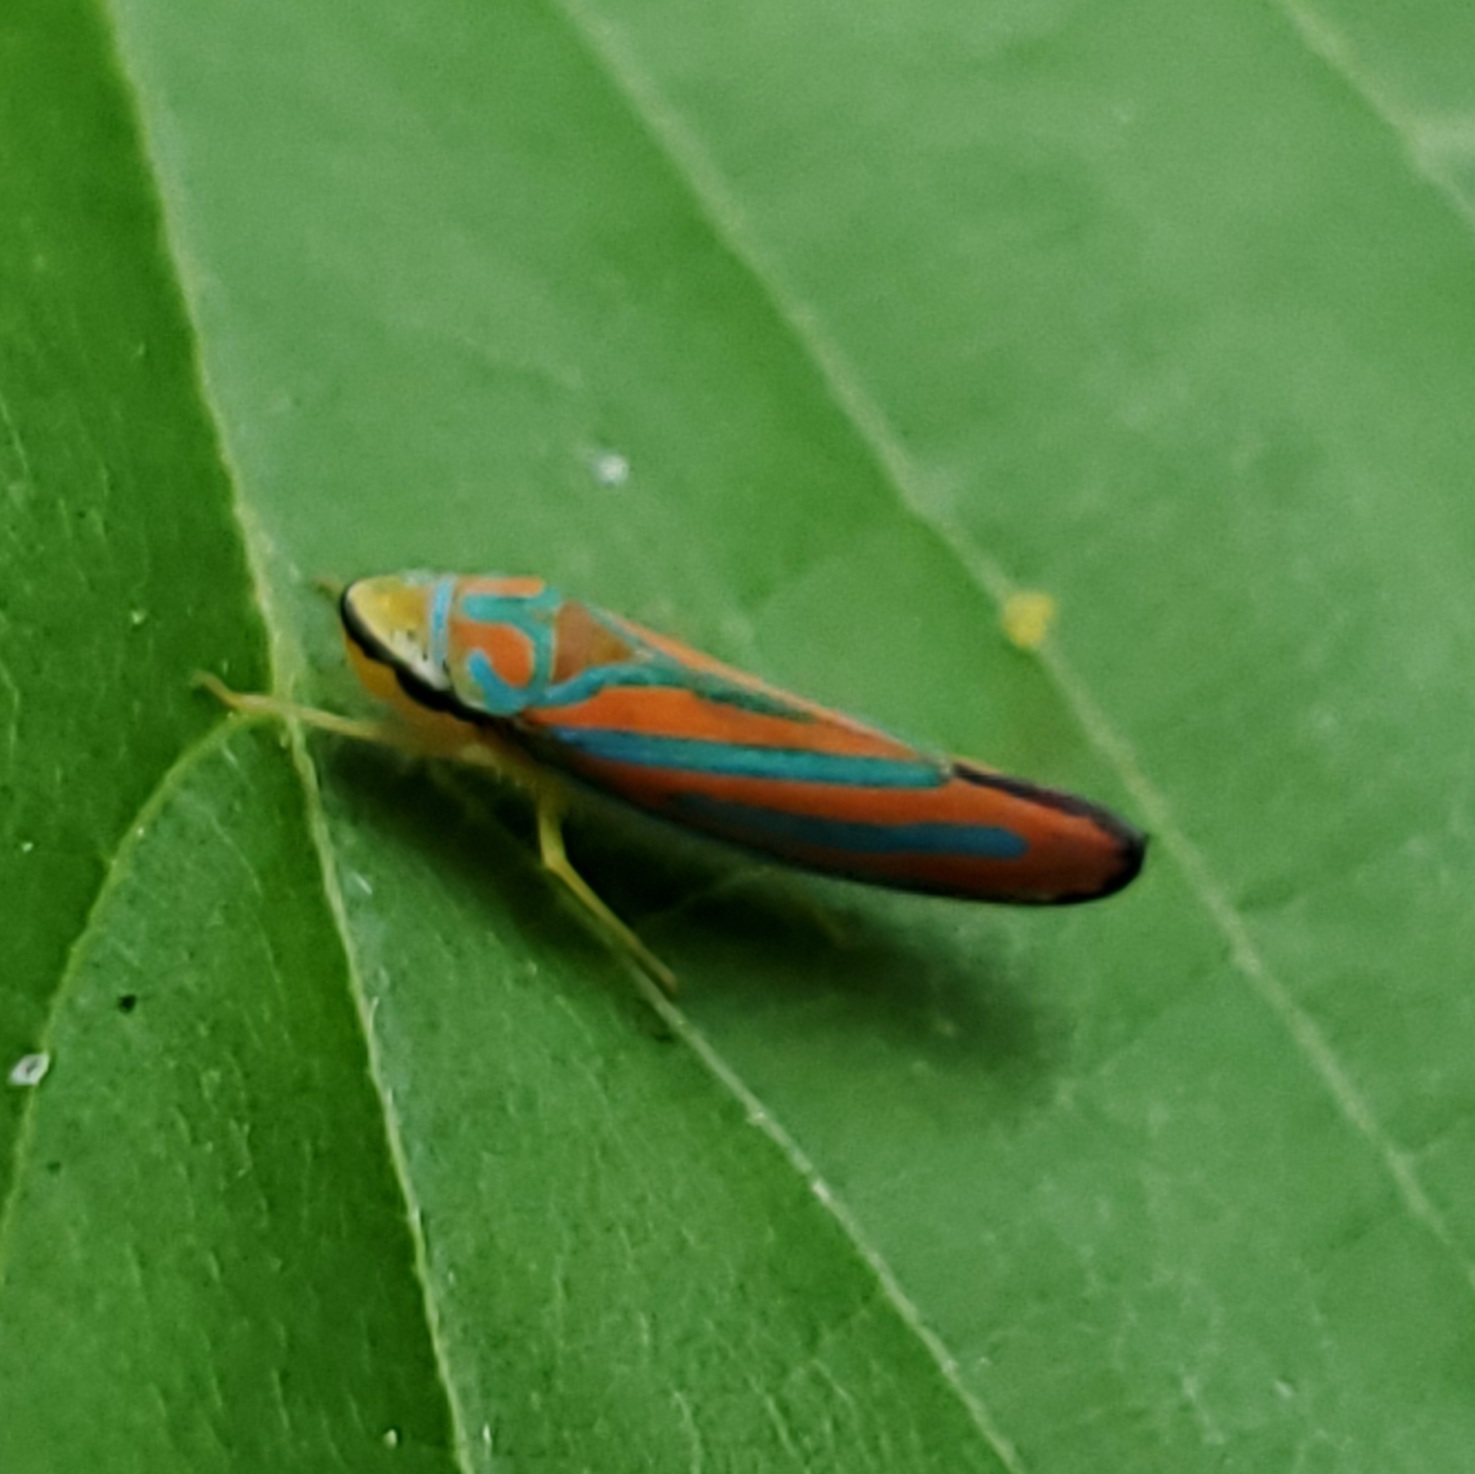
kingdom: Animalia
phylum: Arthropoda
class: Insecta
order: Hemiptera
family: Cicadellidae
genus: Graphocephala
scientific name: Graphocephala coccinea
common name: Candy-striped leafhopper
